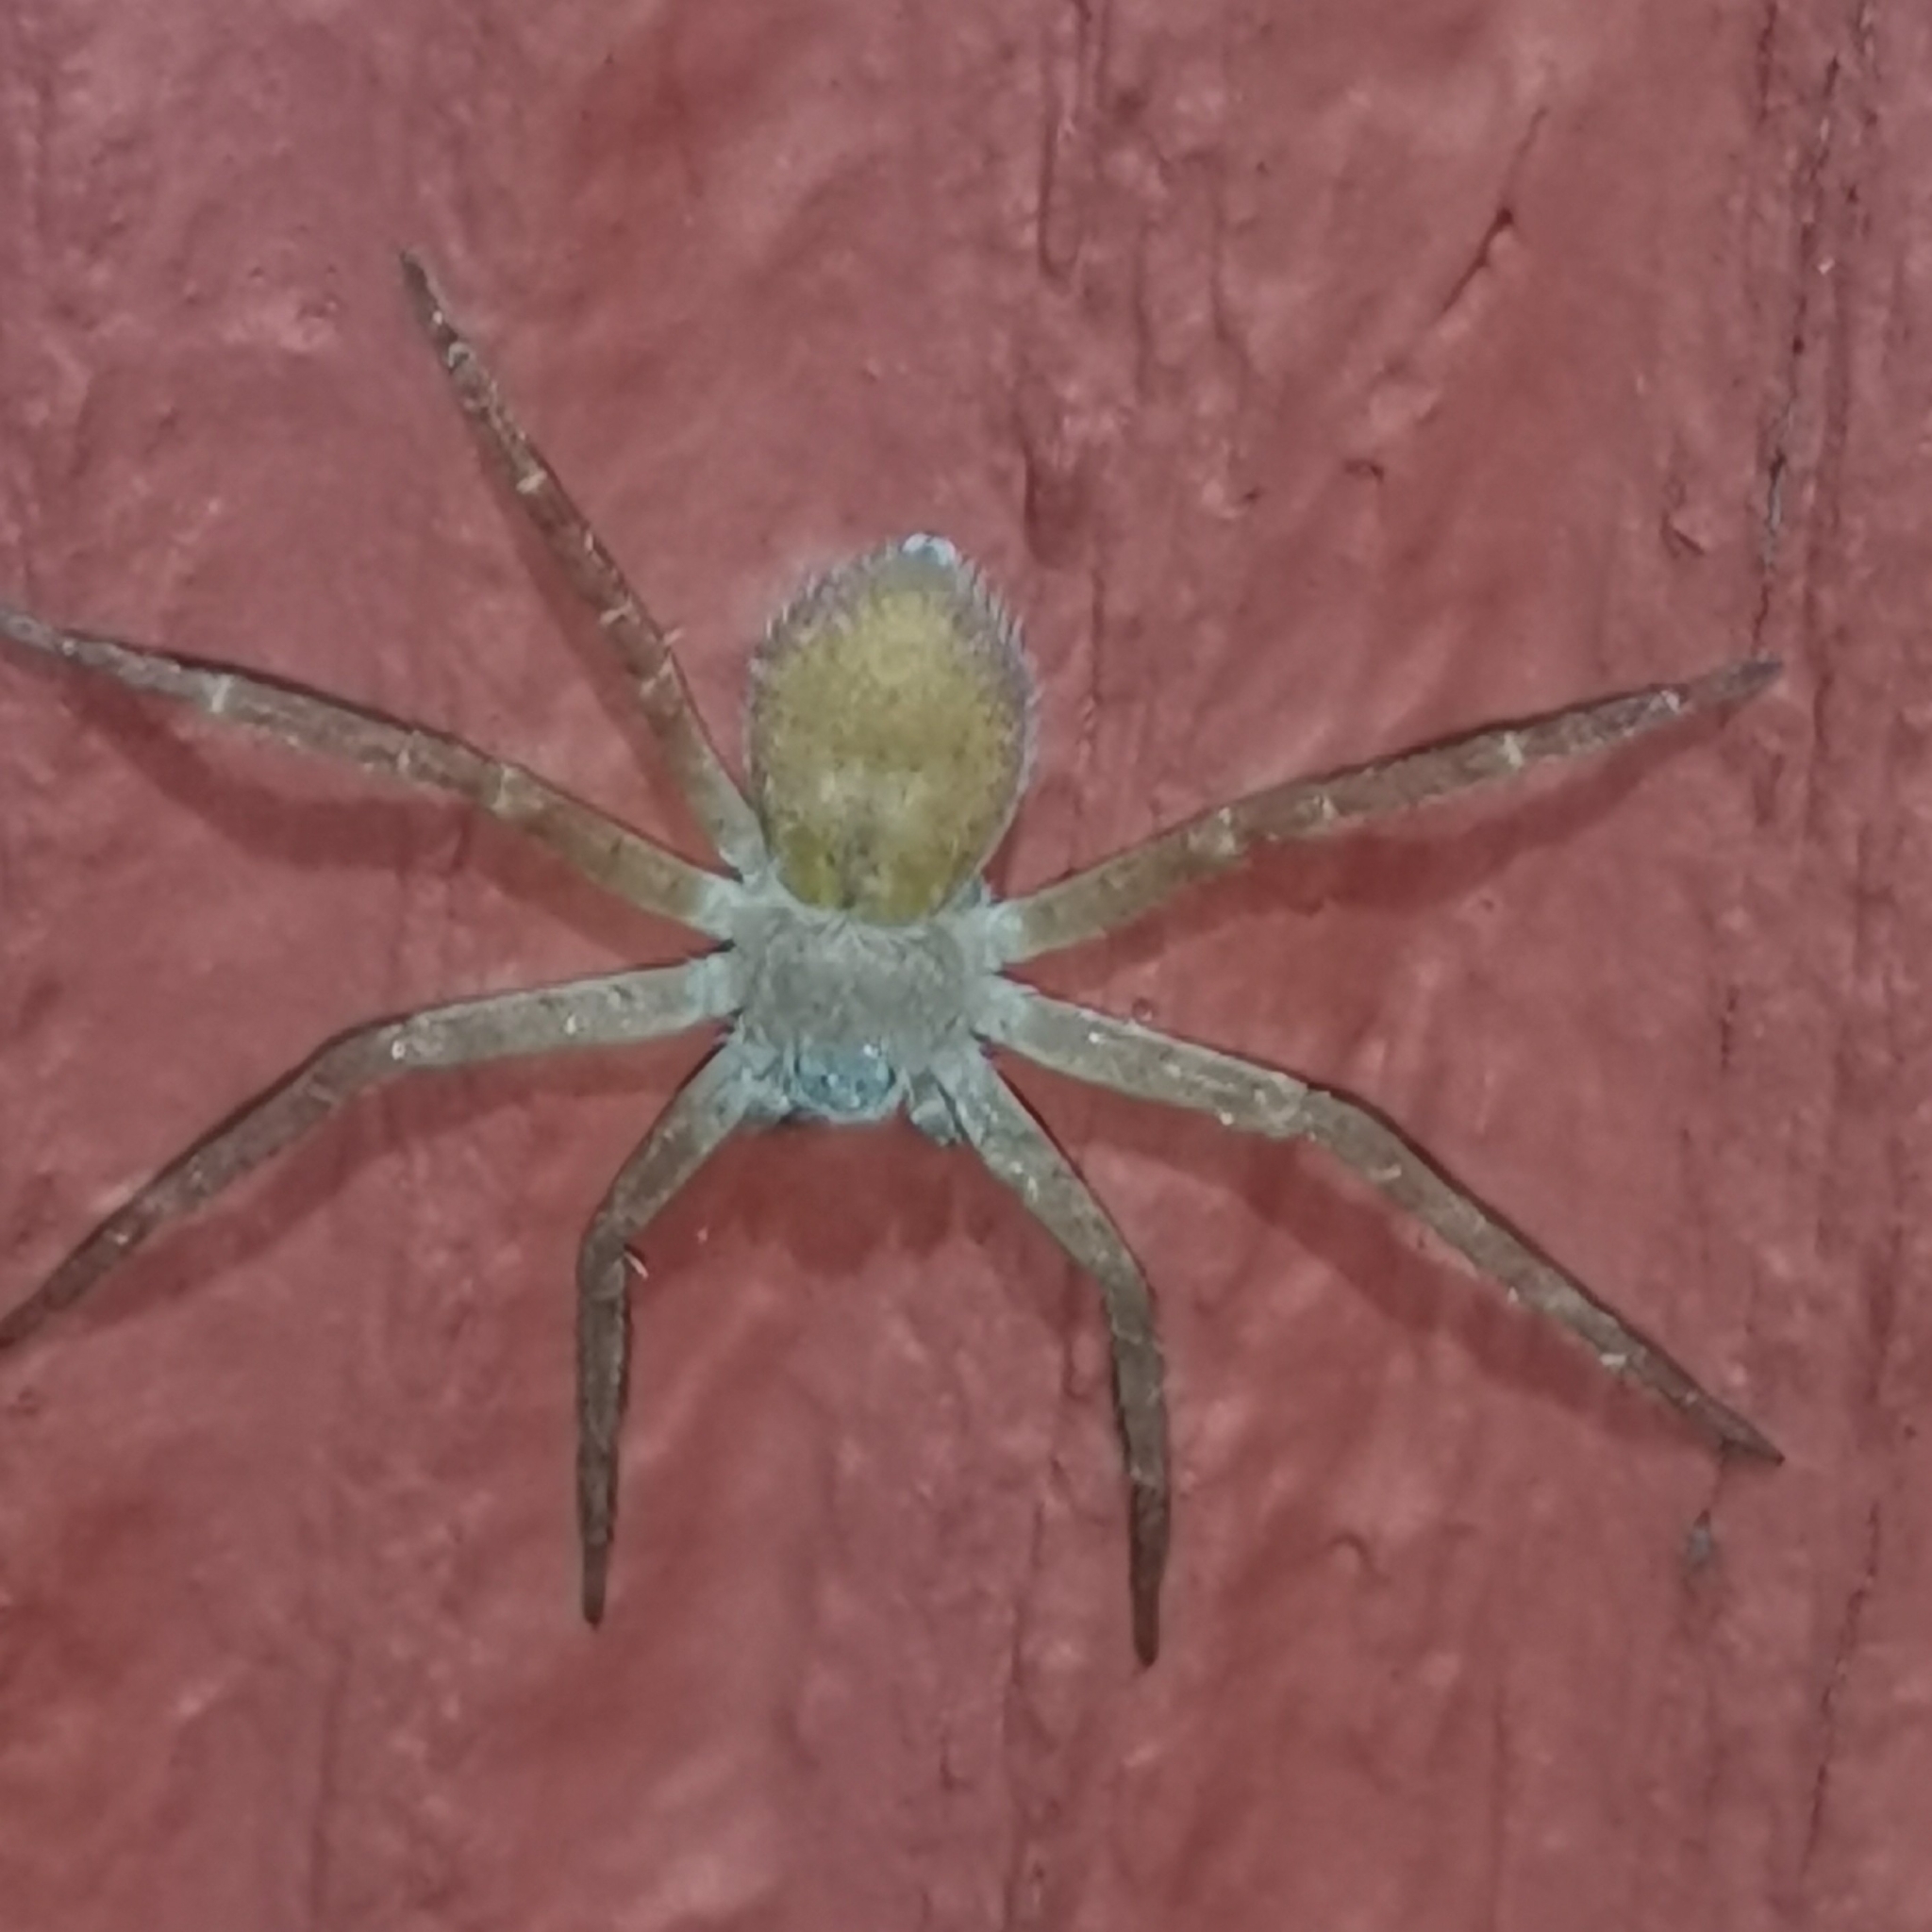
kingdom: Animalia
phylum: Arthropoda
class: Arachnida
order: Araneae
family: Philodromidae
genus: Philodromus
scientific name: Philodromus fuscomarginatus
